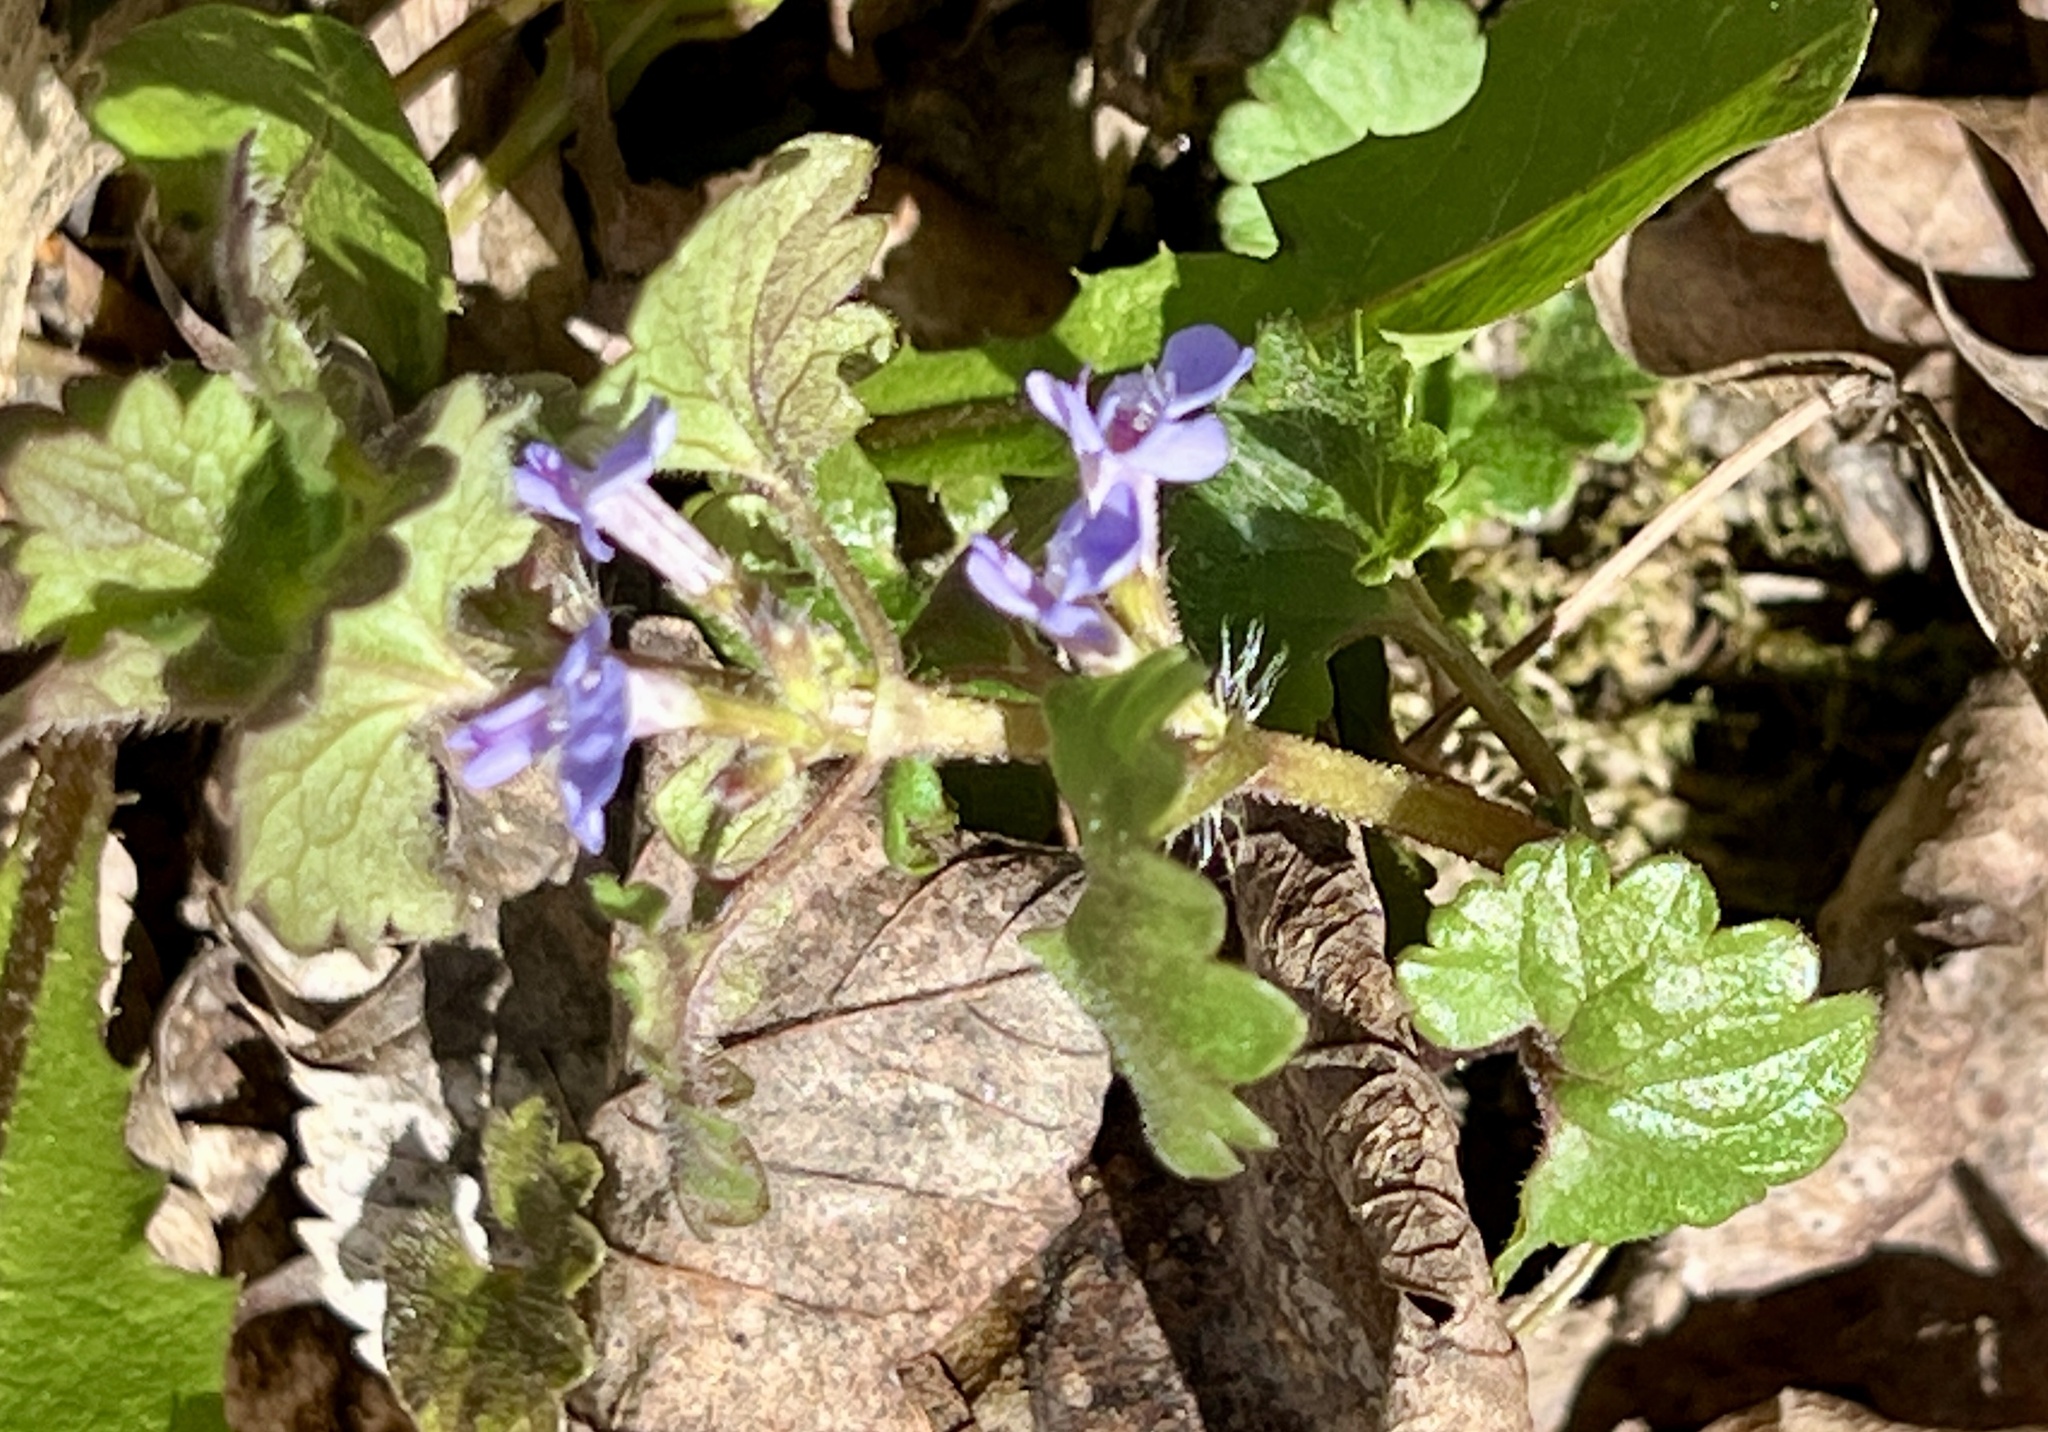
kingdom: Plantae
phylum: Tracheophyta
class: Magnoliopsida
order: Lamiales
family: Lamiaceae
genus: Glechoma
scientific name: Glechoma hederacea
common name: Ground ivy
